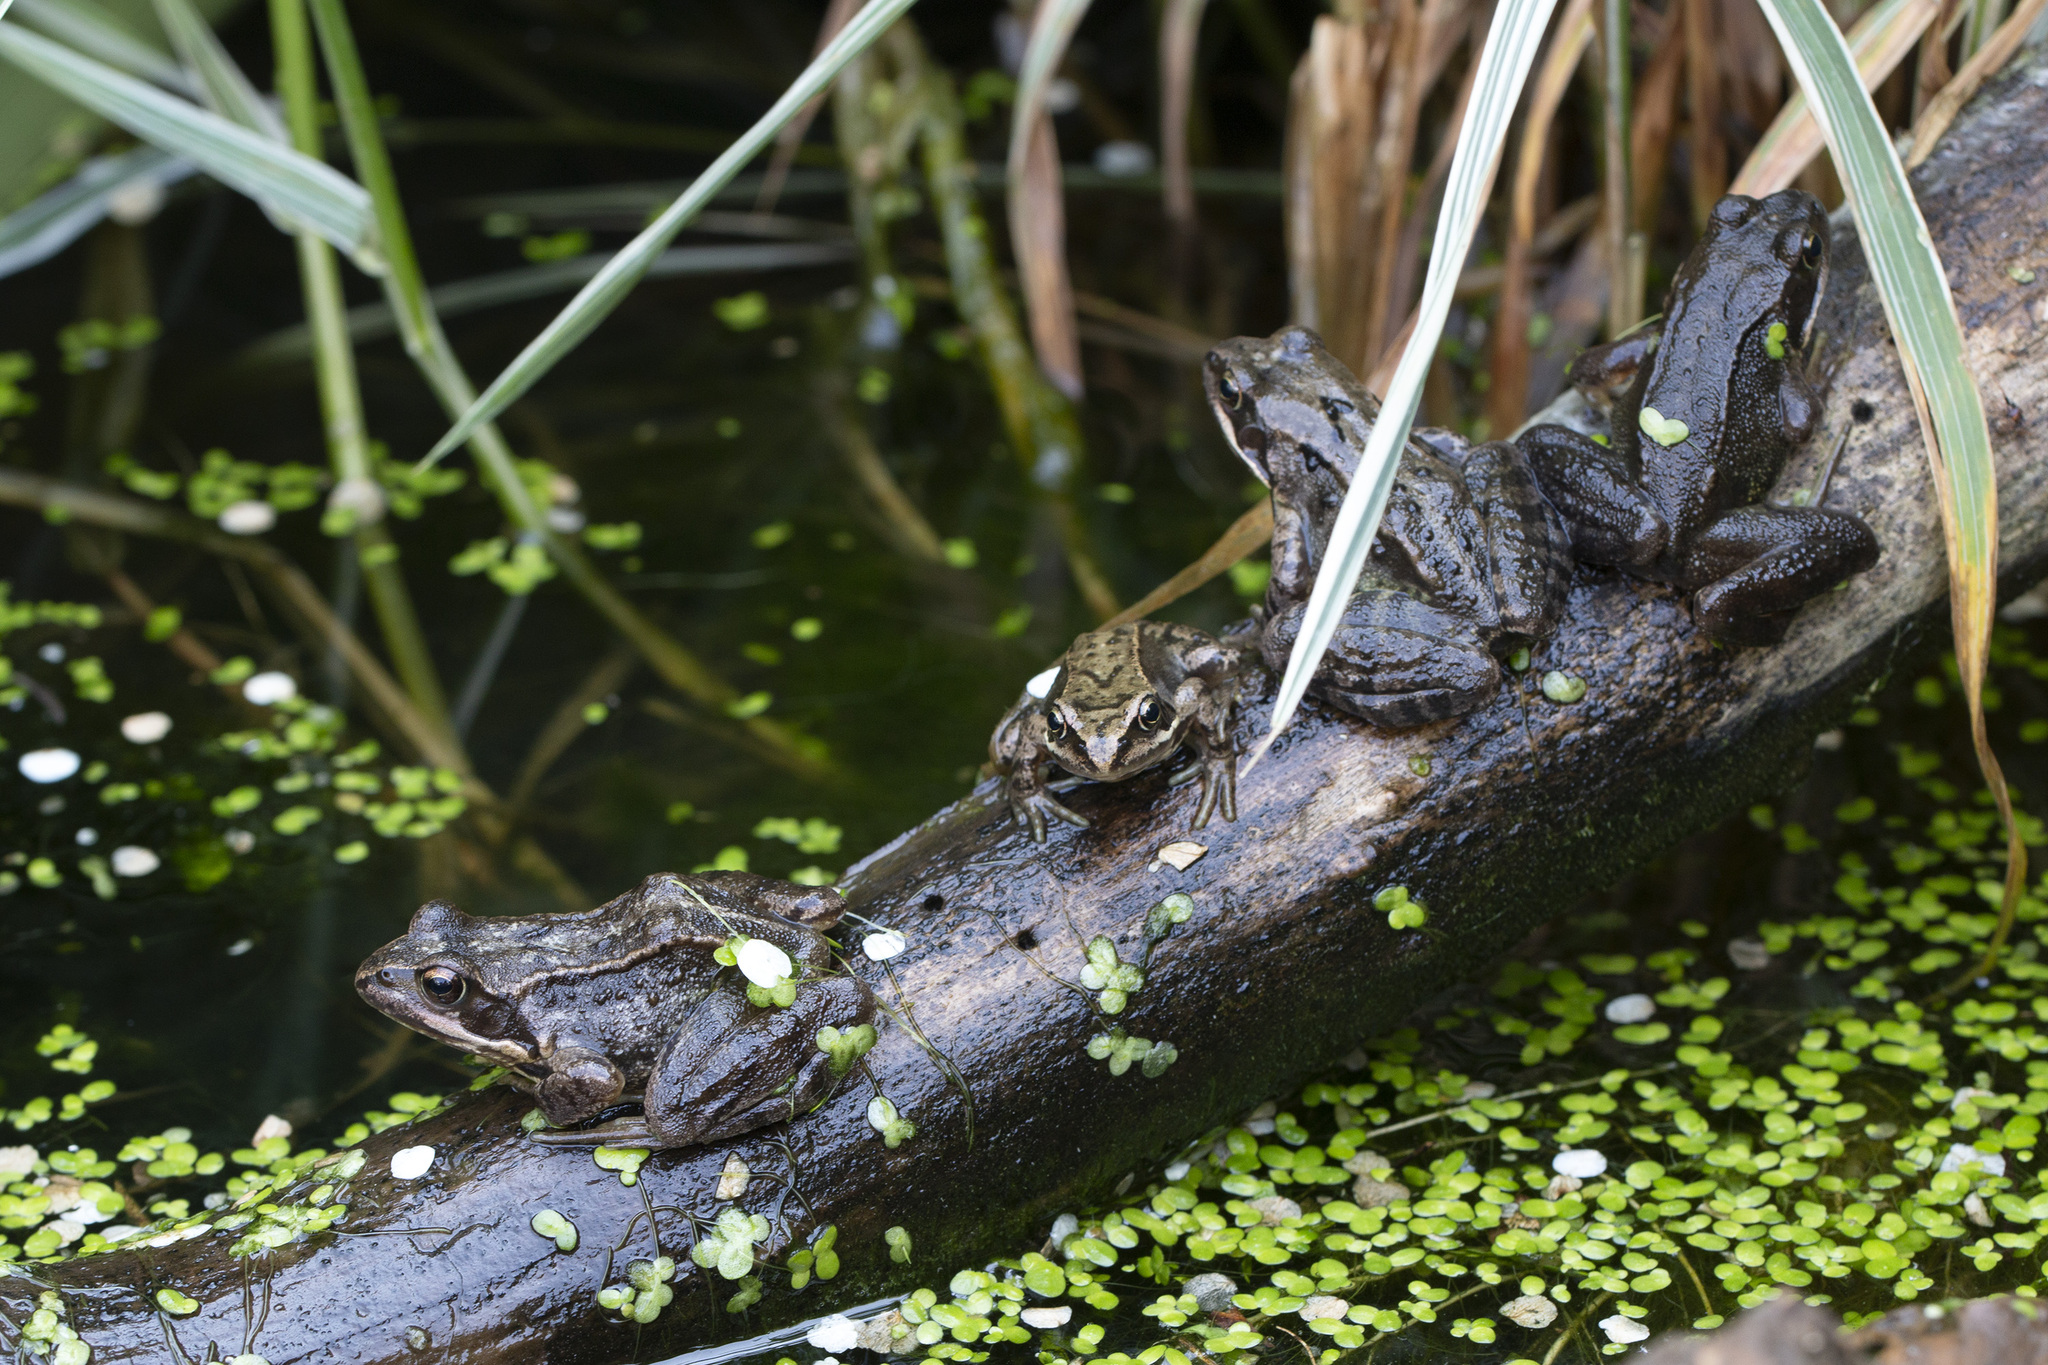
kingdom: Animalia
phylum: Chordata
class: Amphibia
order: Anura
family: Ranidae
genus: Rana
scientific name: Rana temporaria
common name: Common frog
